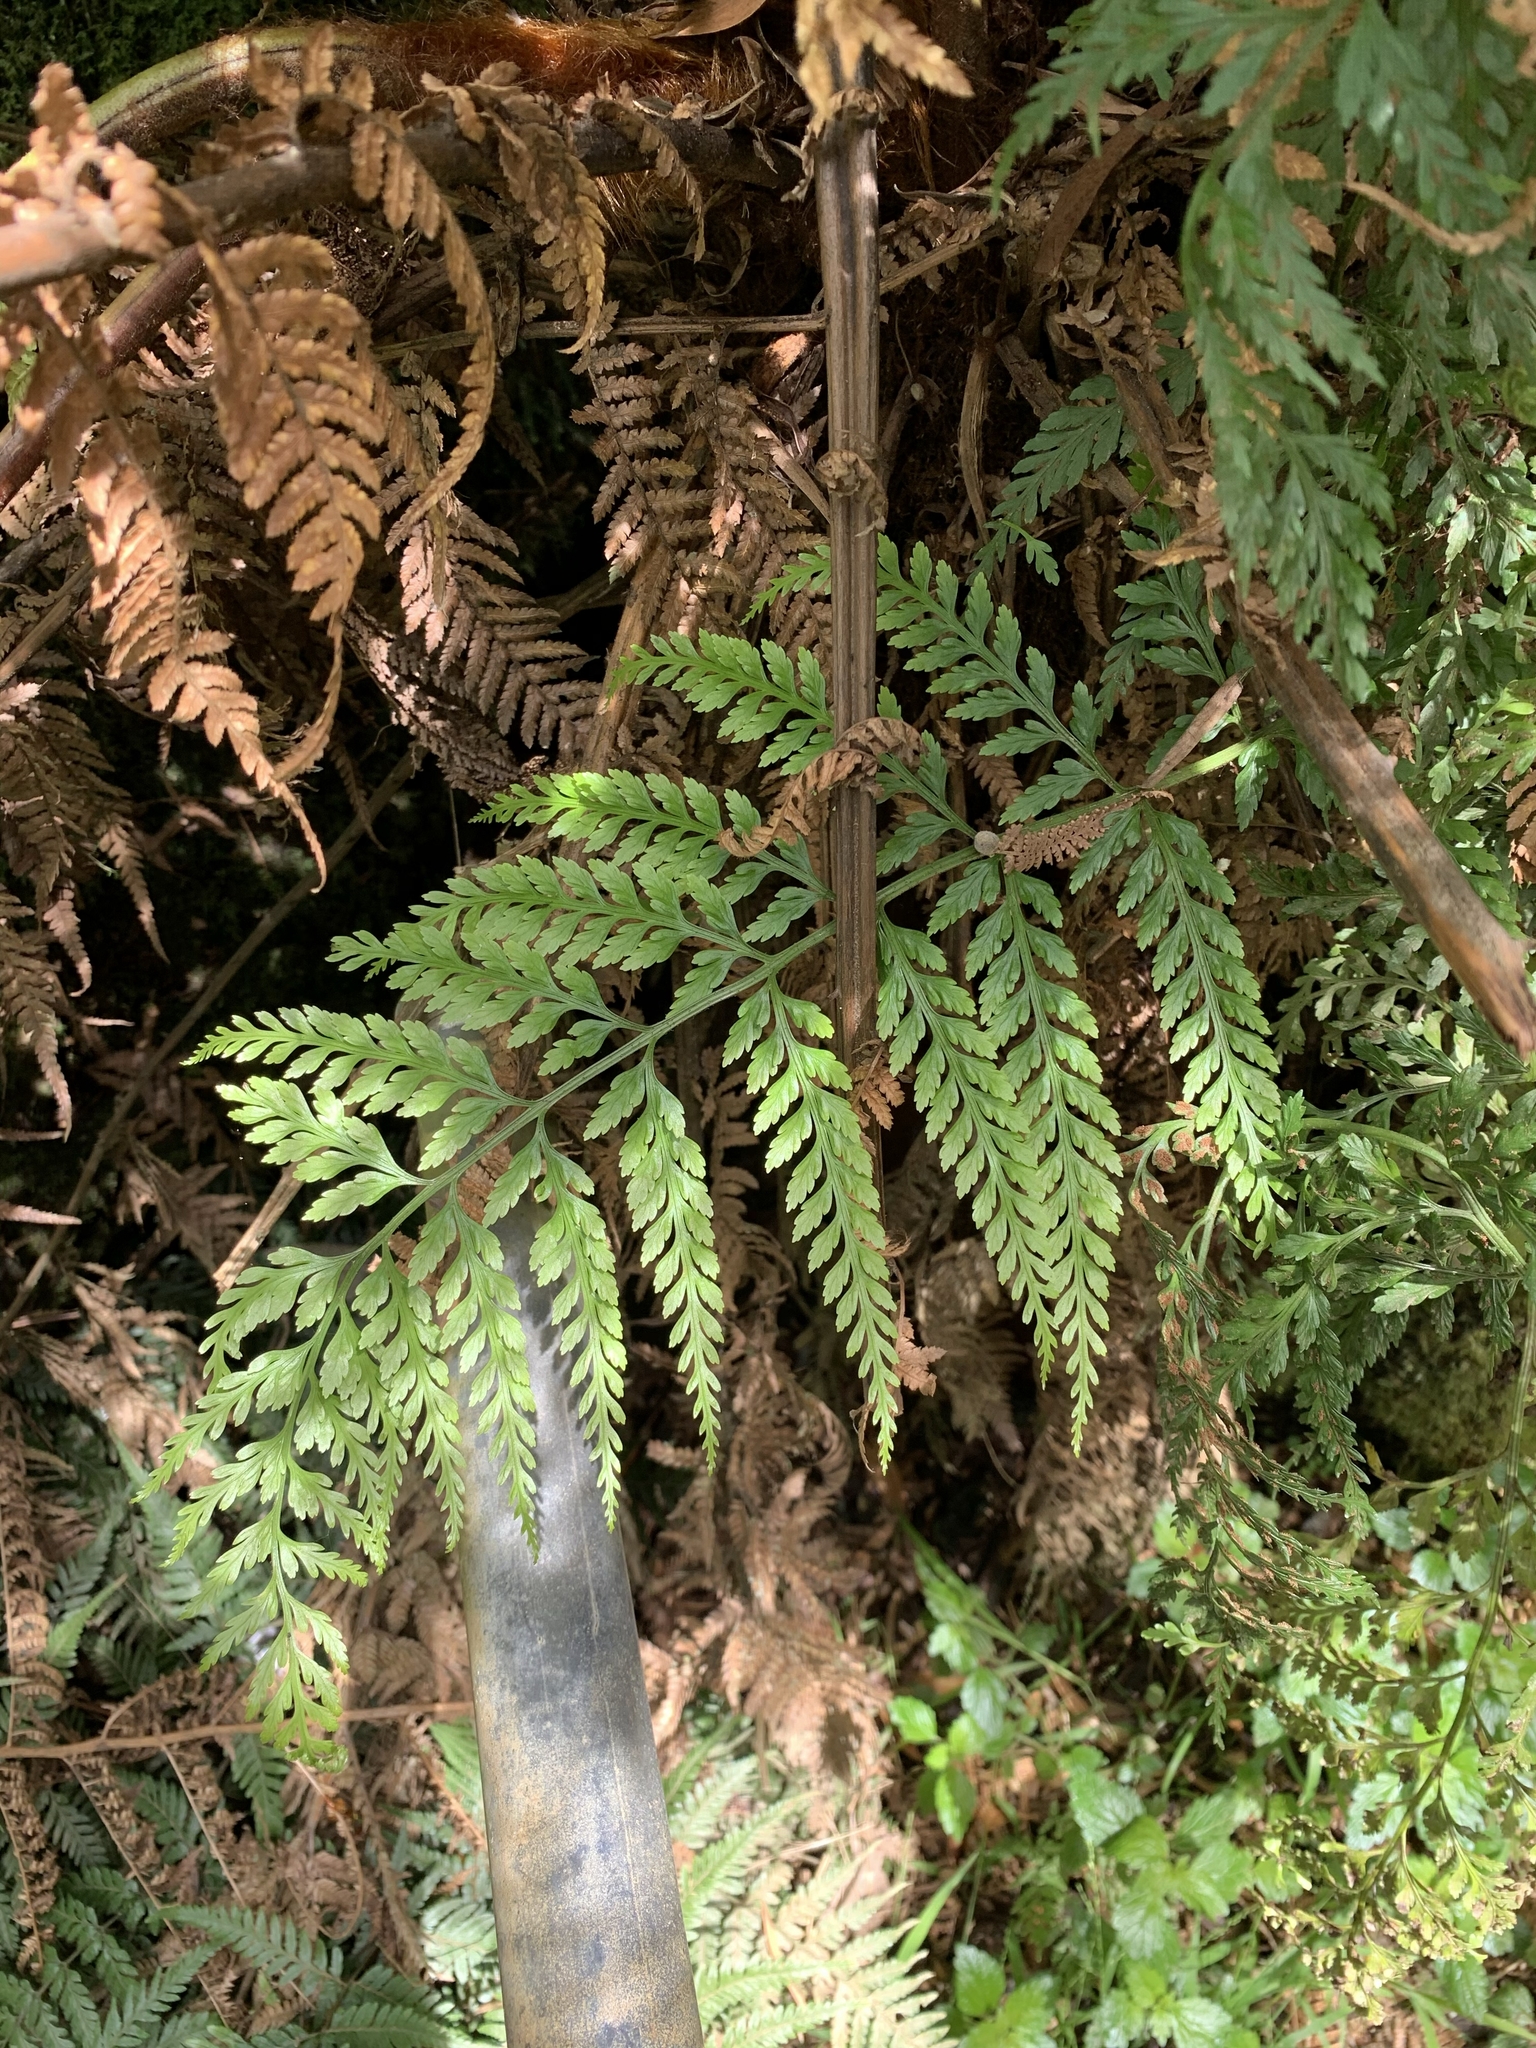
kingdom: Plantae
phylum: Tracheophyta
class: Polypodiopsida
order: Polypodiales
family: Aspleniaceae
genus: Asplenium
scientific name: Asplenium
